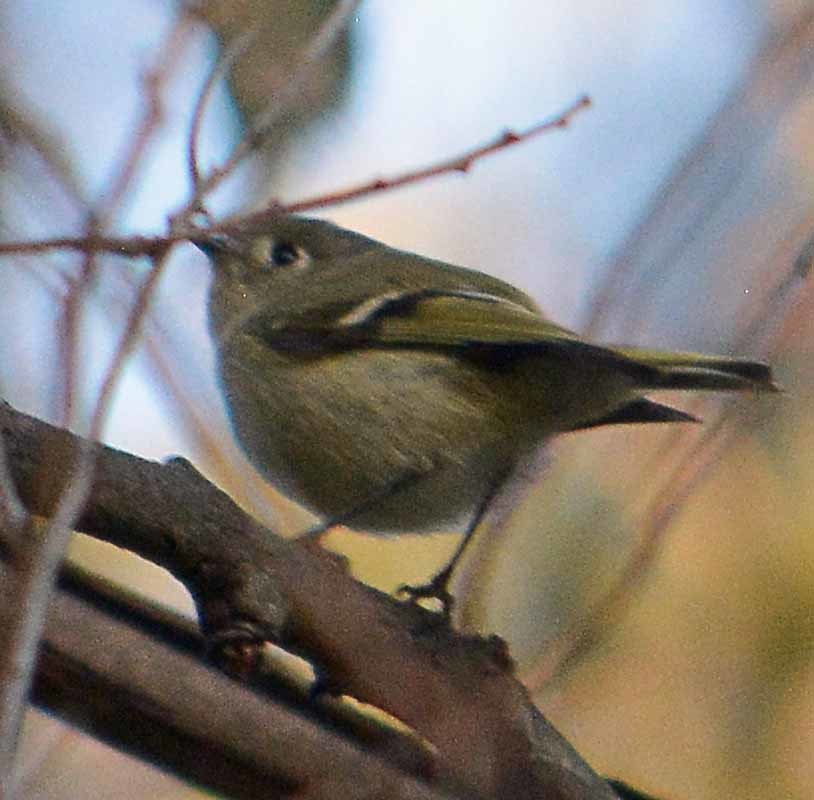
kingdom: Animalia
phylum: Chordata
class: Aves
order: Passeriformes
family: Regulidae
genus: Regulus
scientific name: Regulus calendula
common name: Ruby-crowned kinglet
